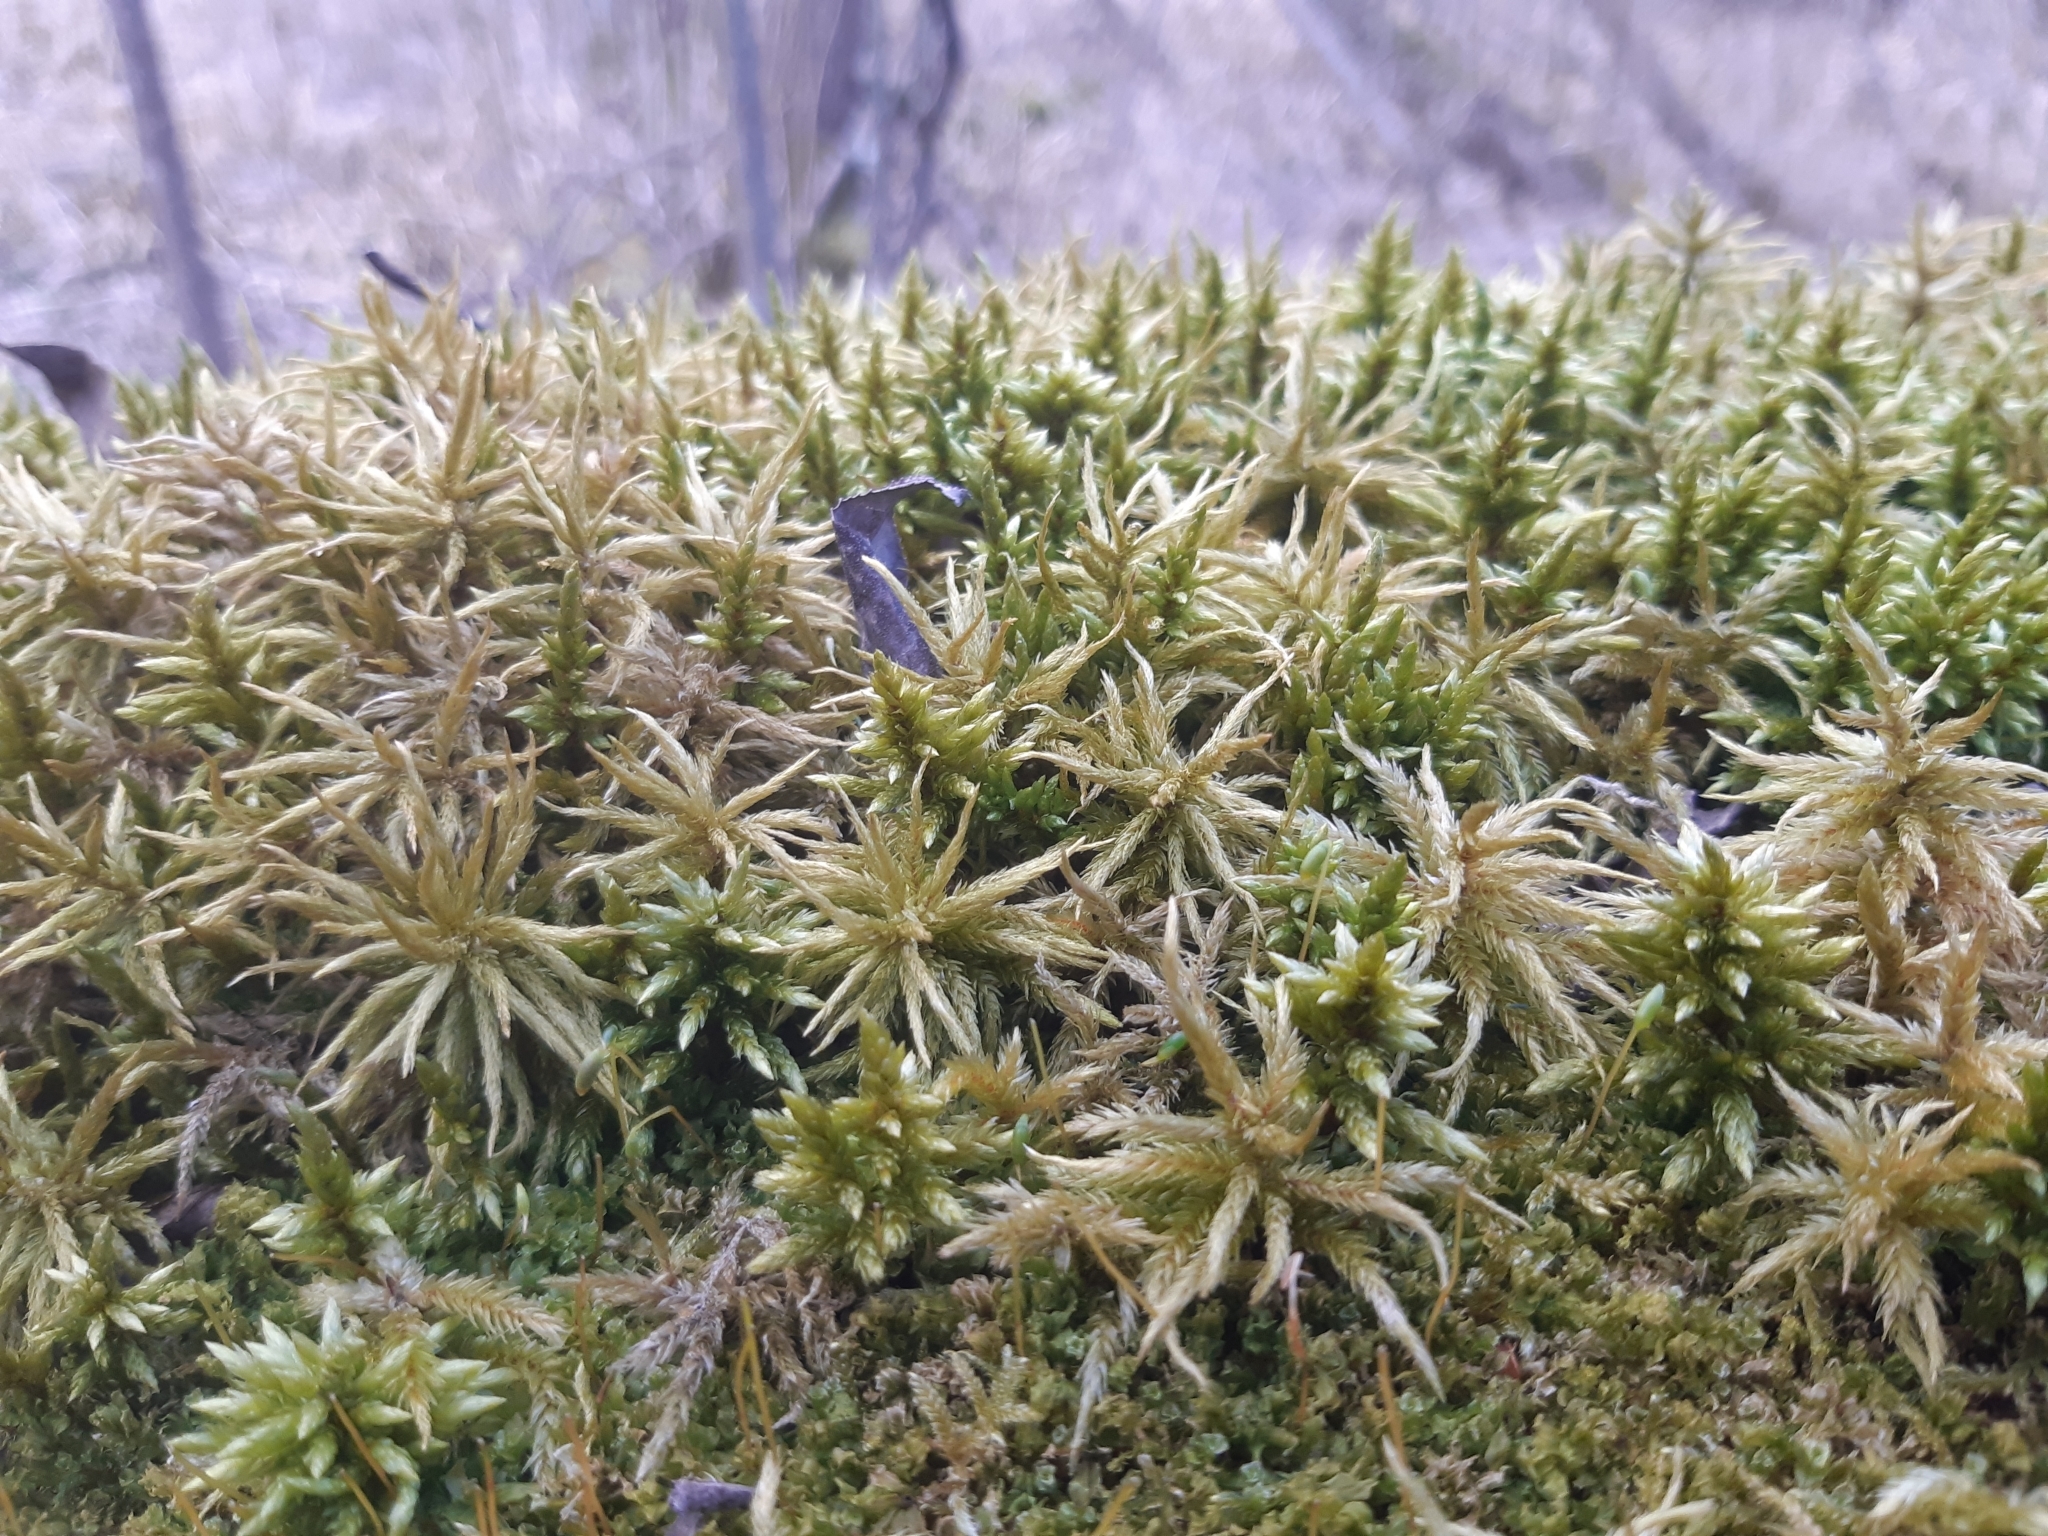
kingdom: Plantae
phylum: Bryophyta
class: Bryopsida
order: Hypnales
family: Climaciaceae
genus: Climacium
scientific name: Climacium dendroides
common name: Northern tree moss
